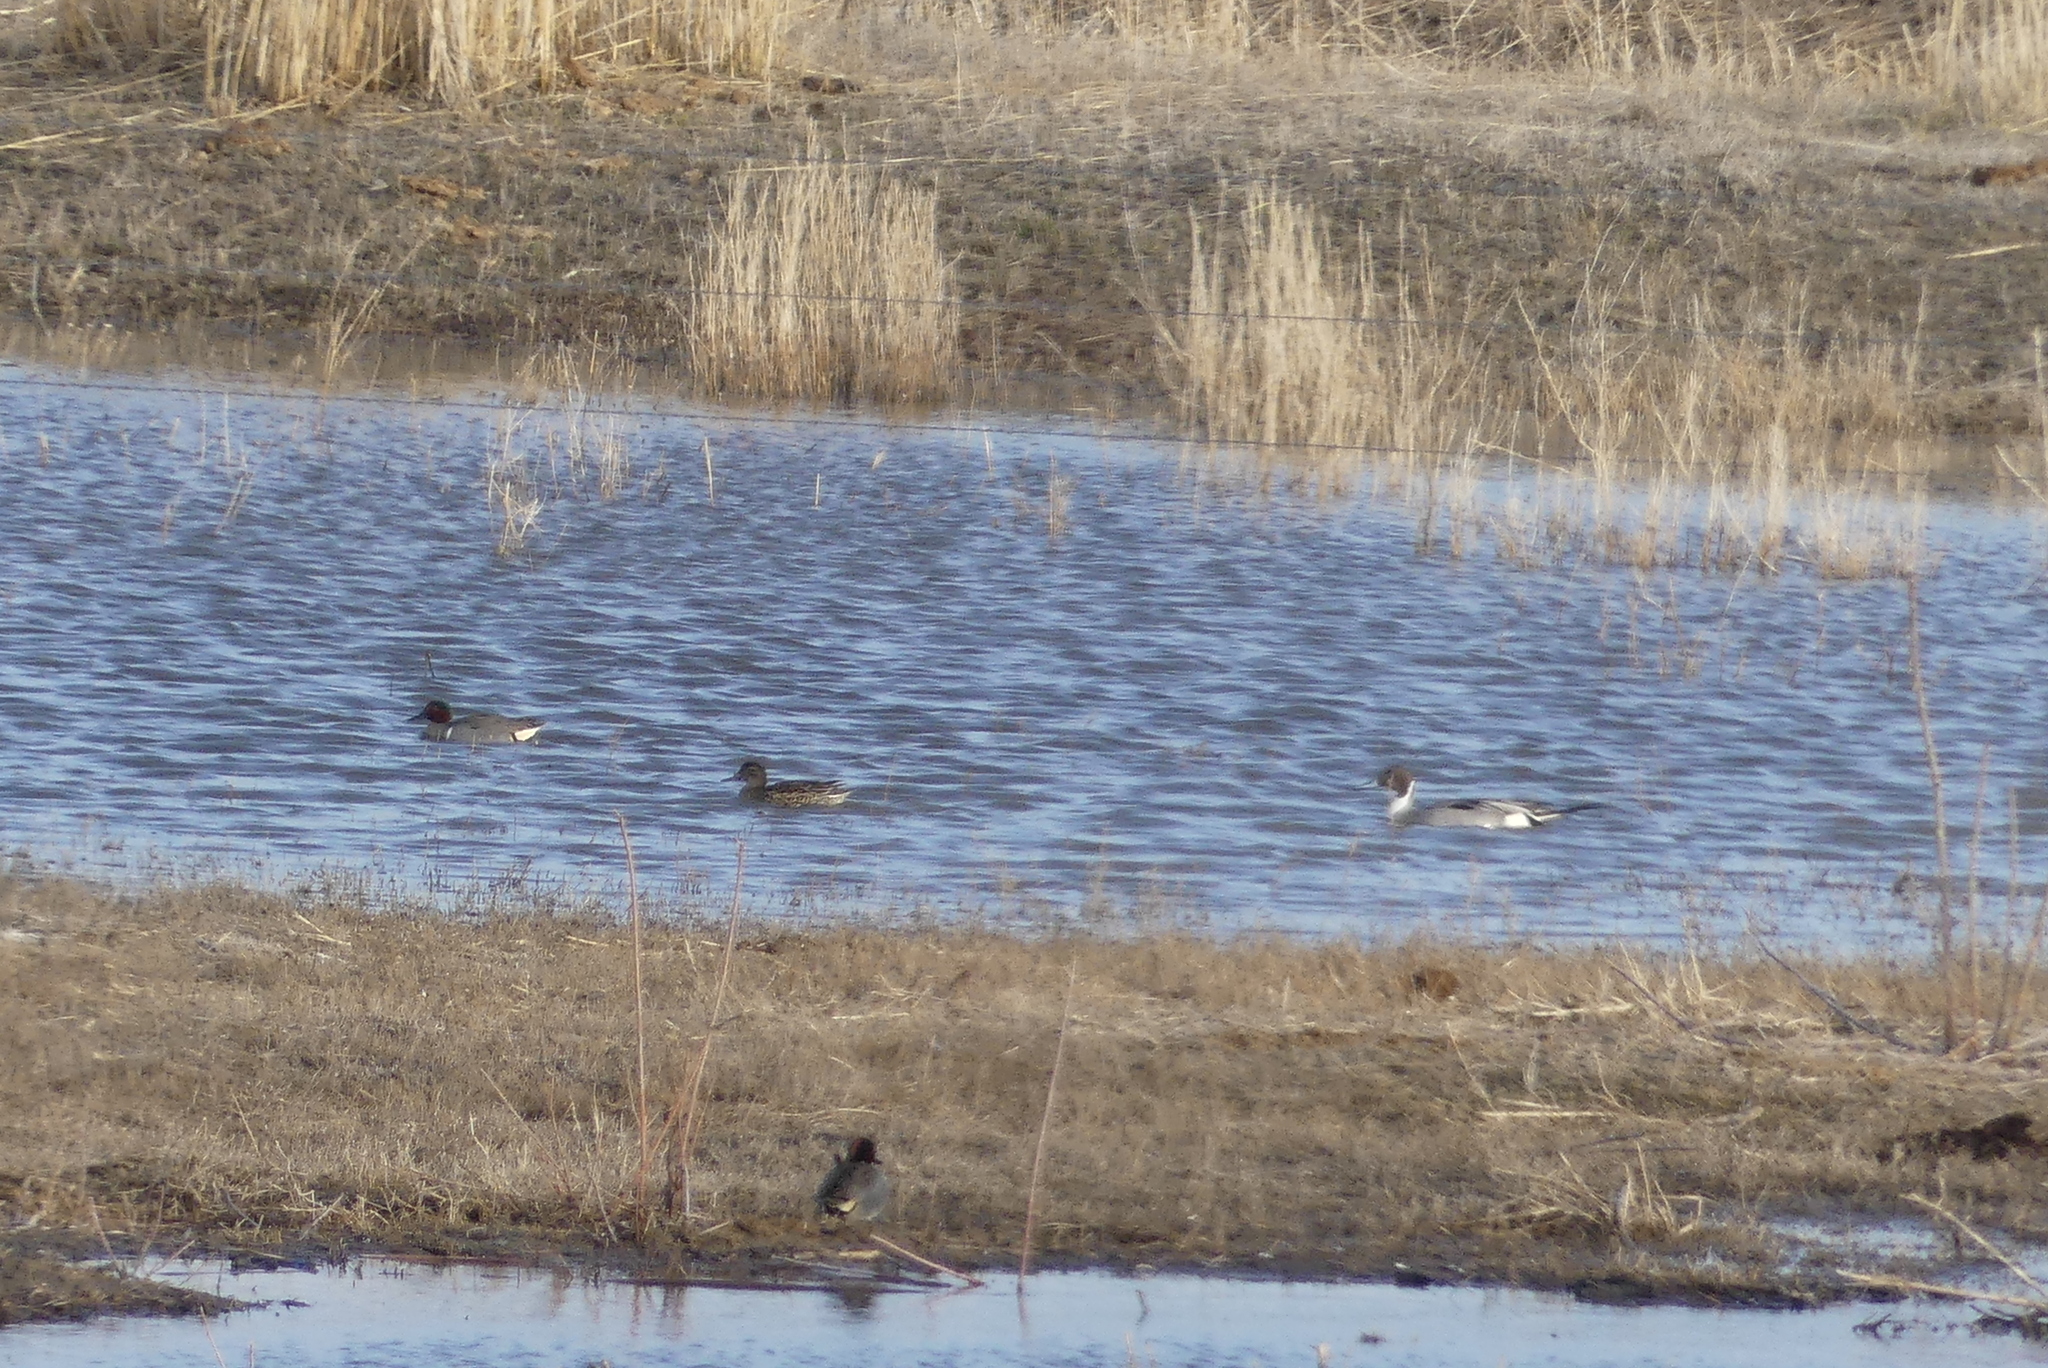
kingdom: Animalia
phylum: Chordata
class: Aves
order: Anseriformes
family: Anatidae
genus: Anas
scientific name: Anas acuta
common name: Northern pintail
